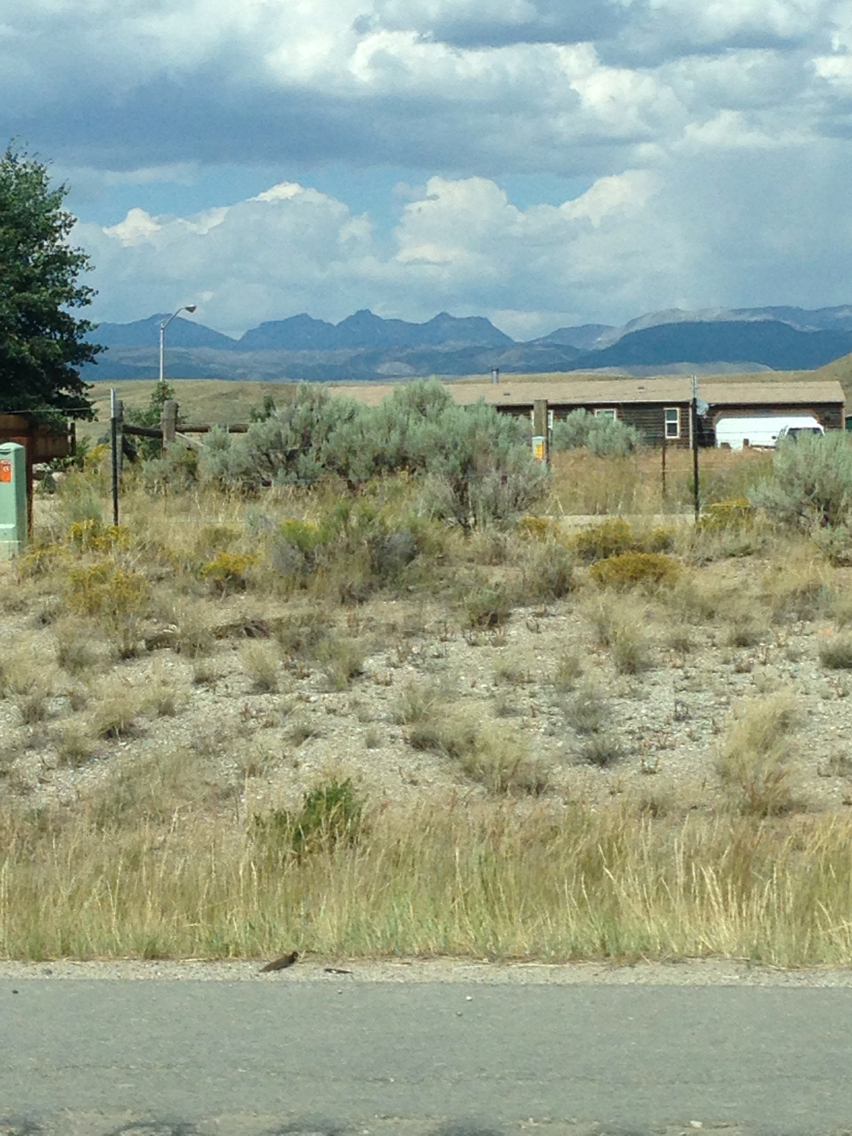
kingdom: Plantae
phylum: Tracheophyta
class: Magnoliopsida
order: Asterales
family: Asteraceae
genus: Artemisia
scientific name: Artemisia tridentata
